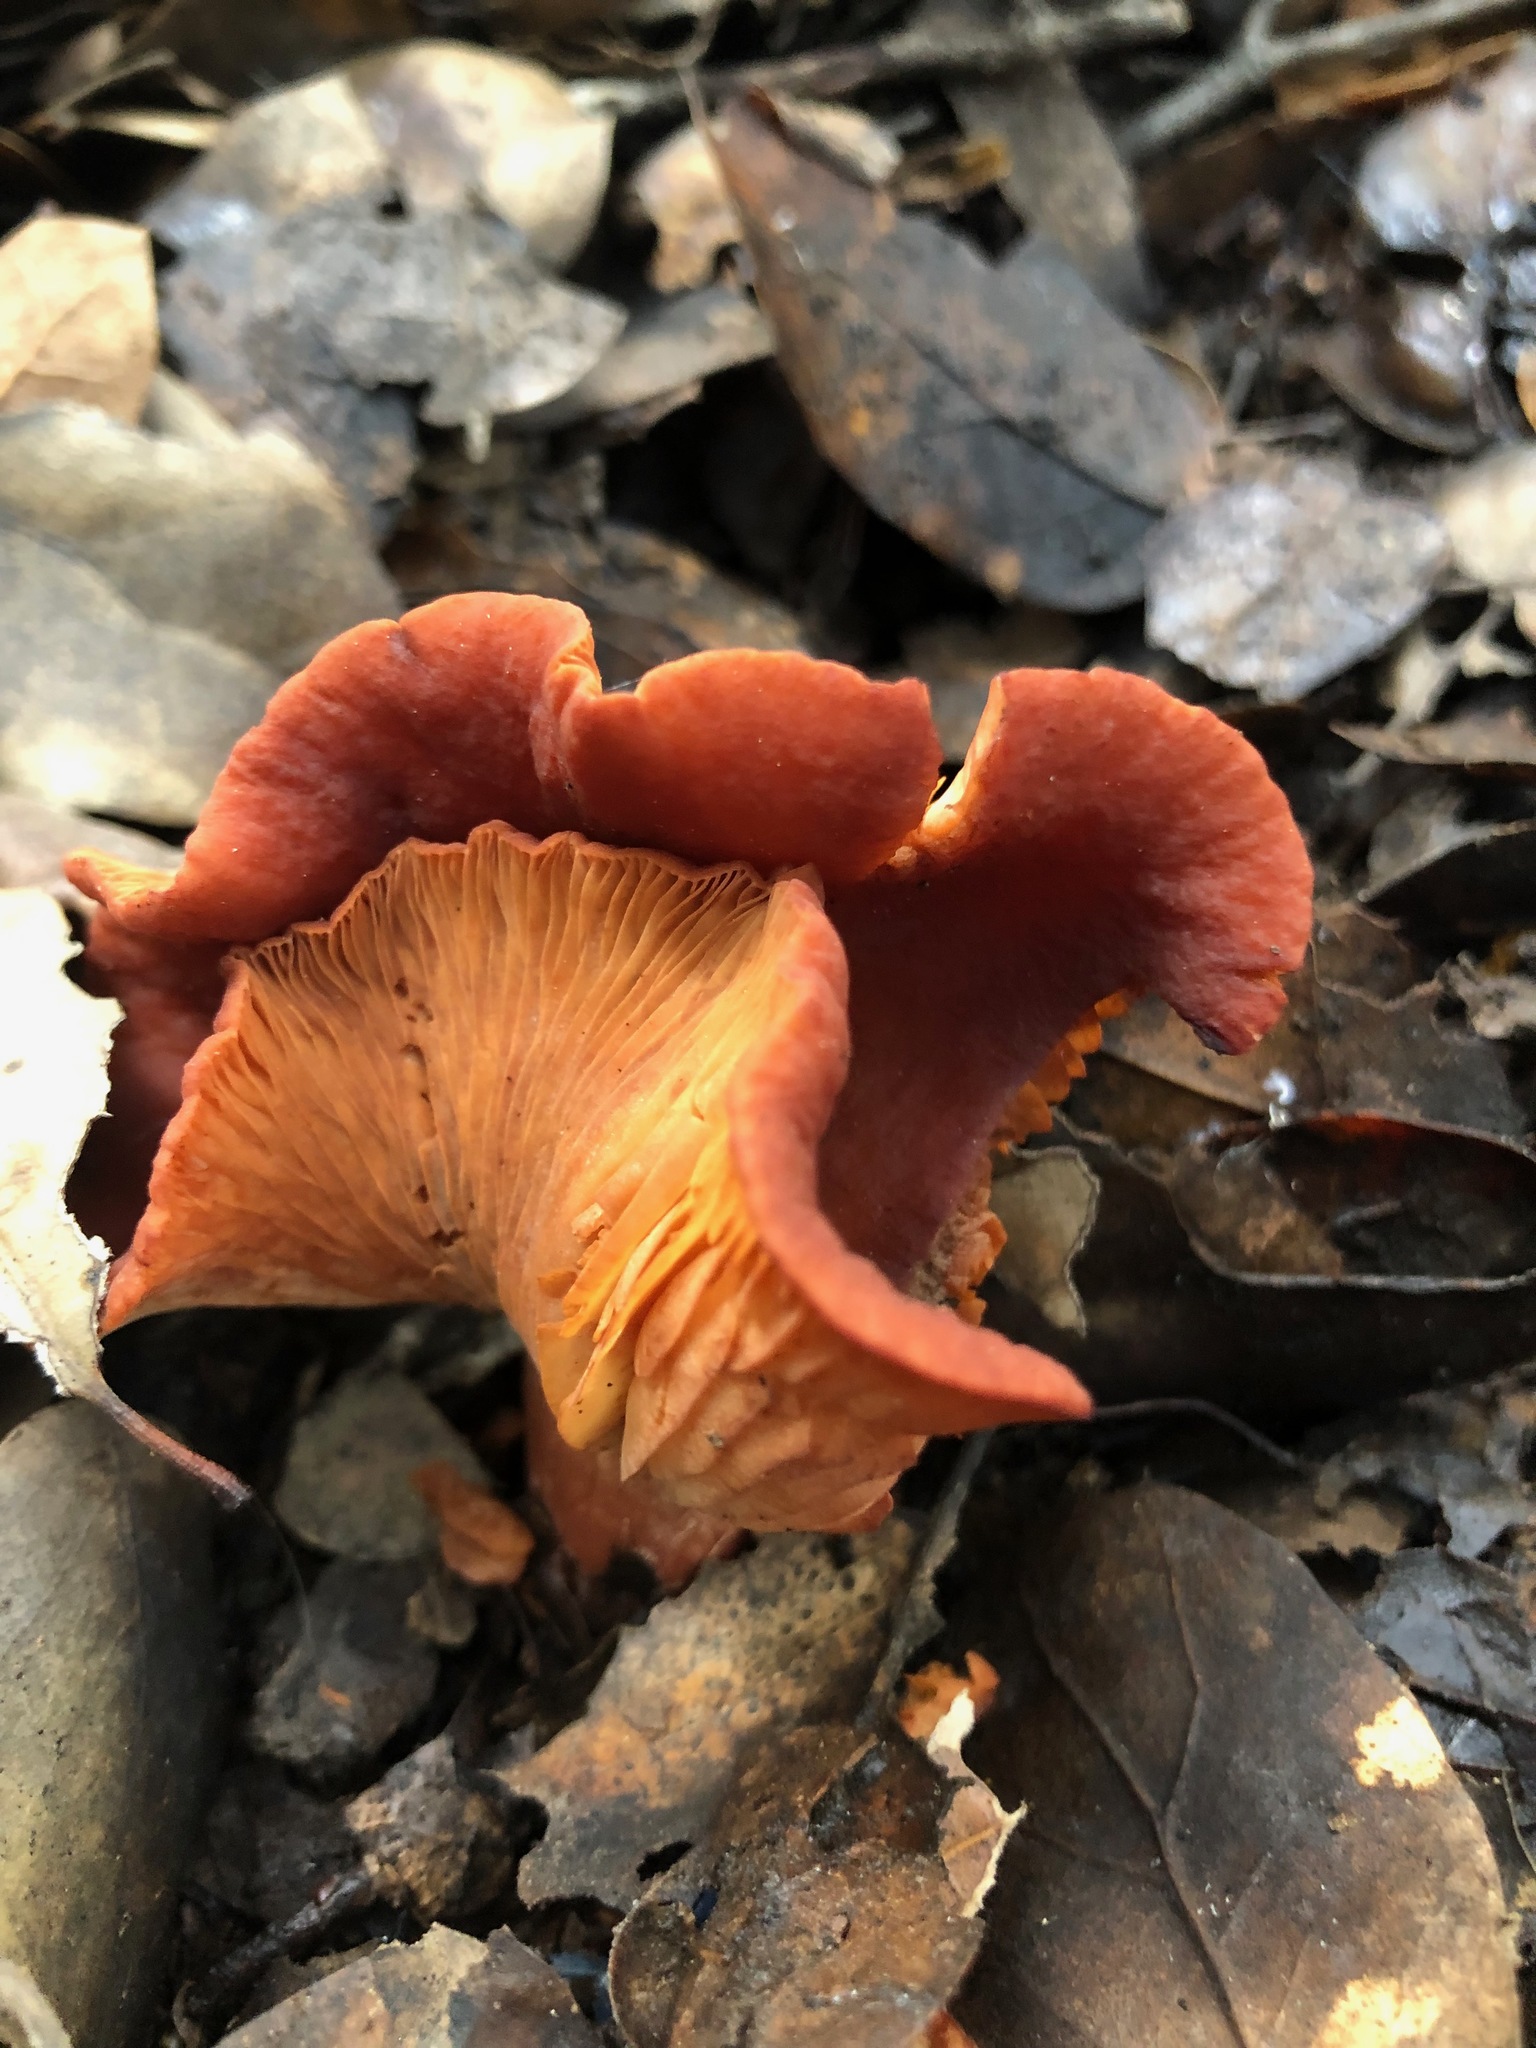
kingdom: Fungi
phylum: Basidiomycota
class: Agaricomycetes
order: Russulales
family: Russulaceae
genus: Lactarius
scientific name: Lactarius rufulus
